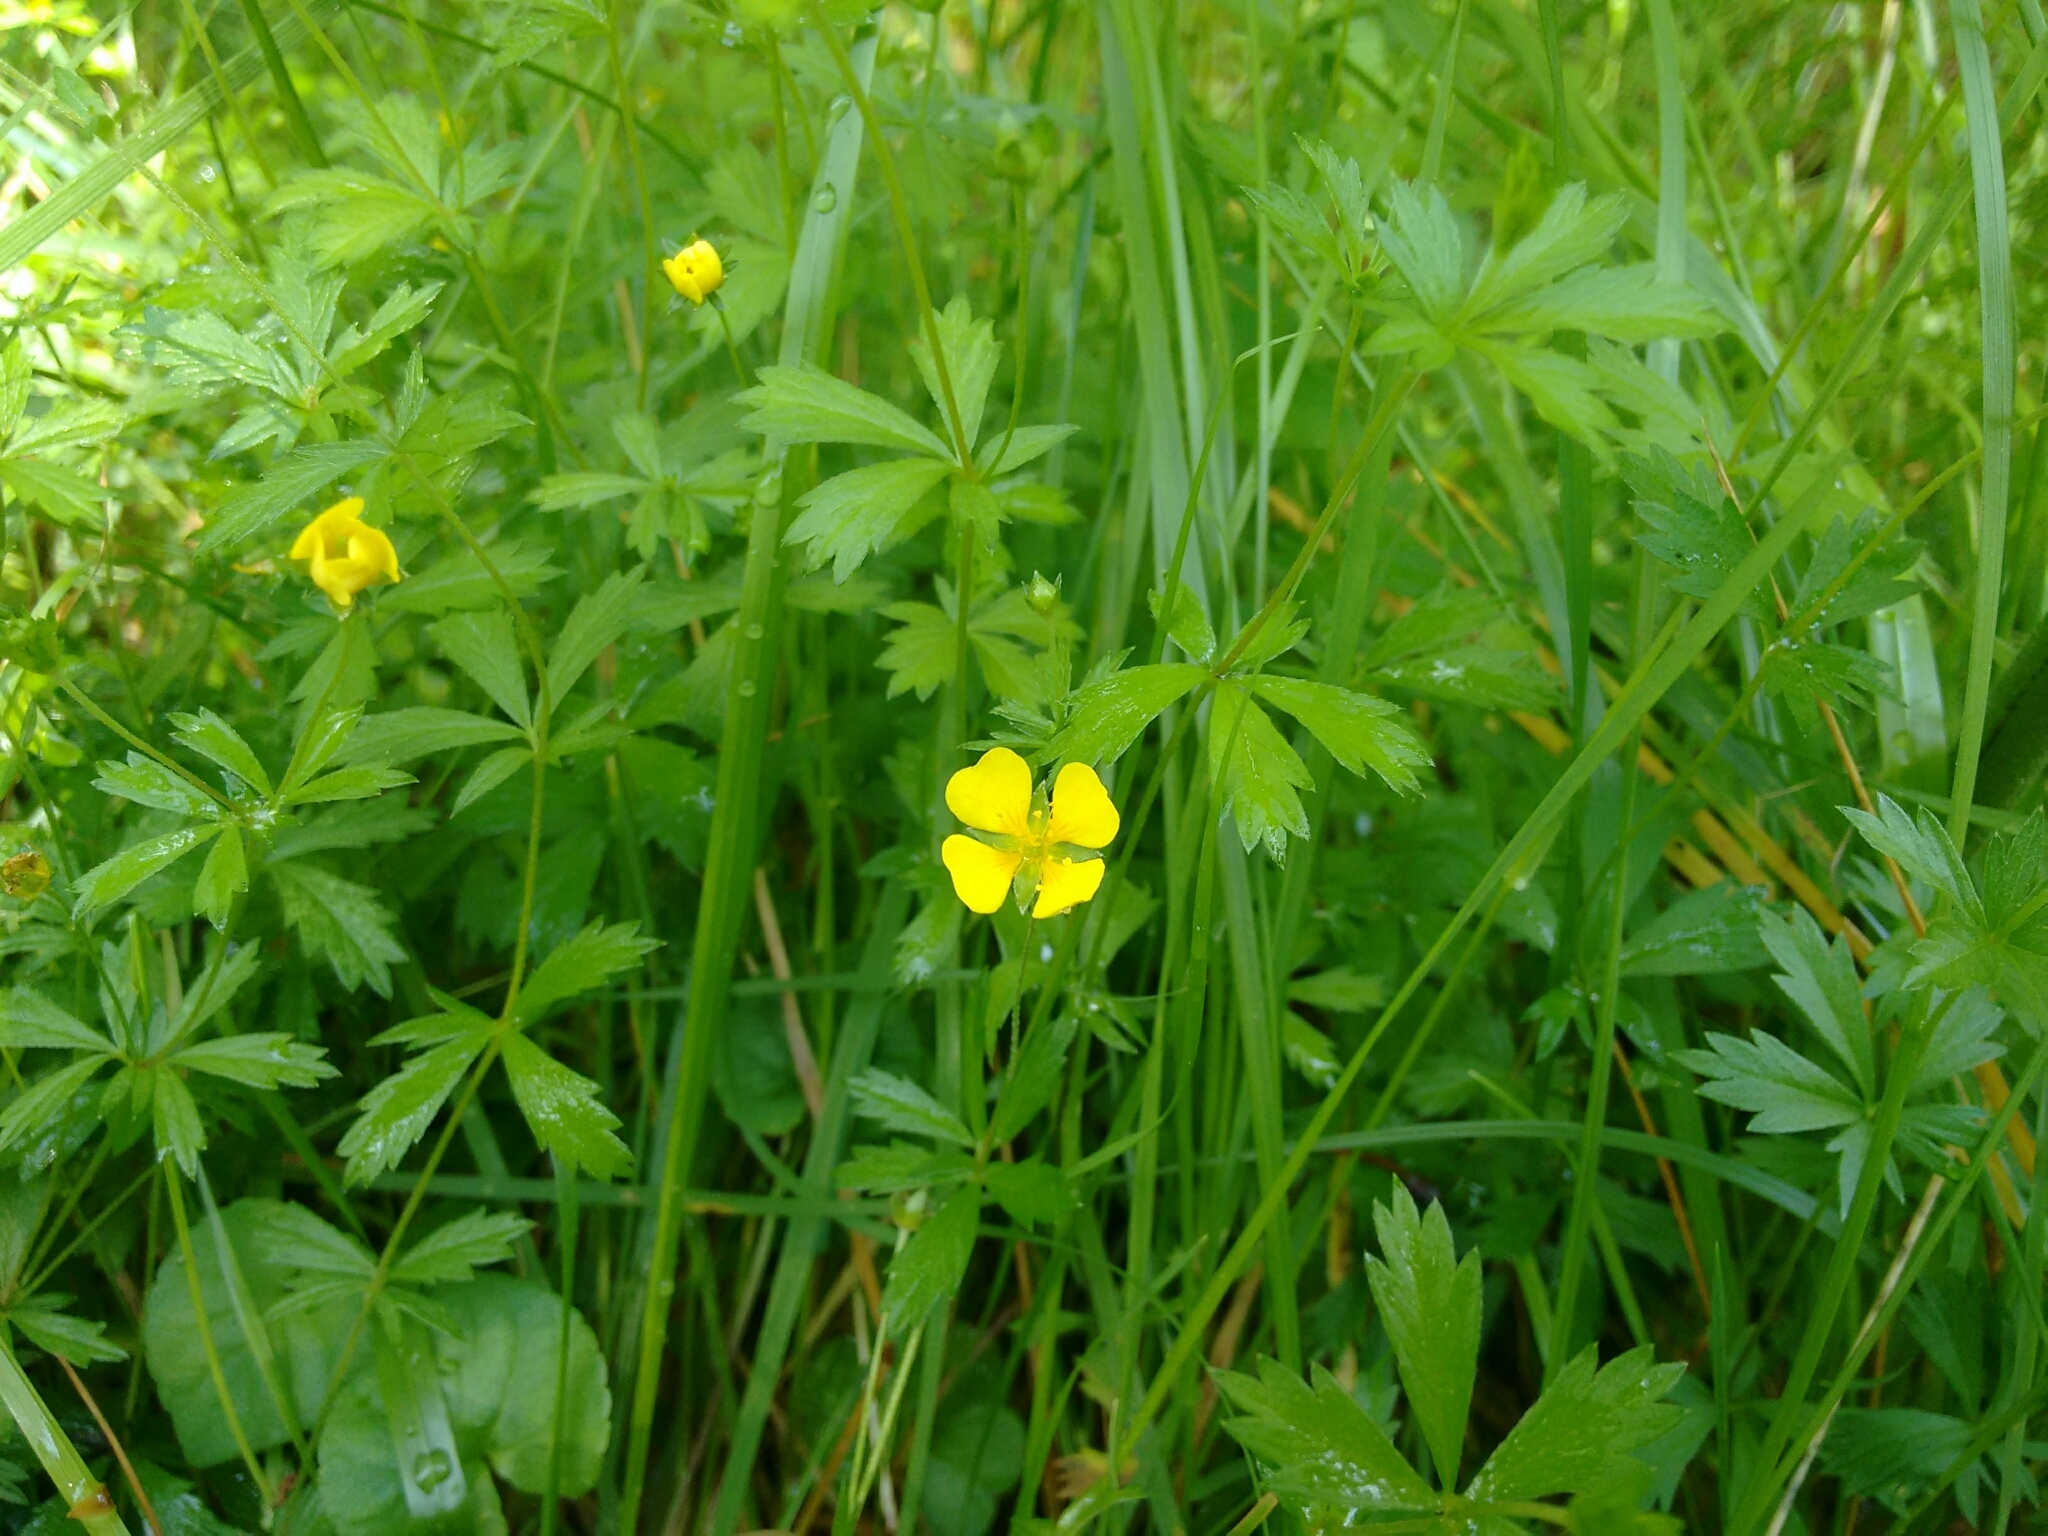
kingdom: Plantae
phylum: Tracheophyta
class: Magnoliopsida
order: Rosales
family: Rosaceae
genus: Potentilla
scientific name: Potentilla erecta
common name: Tormentil
